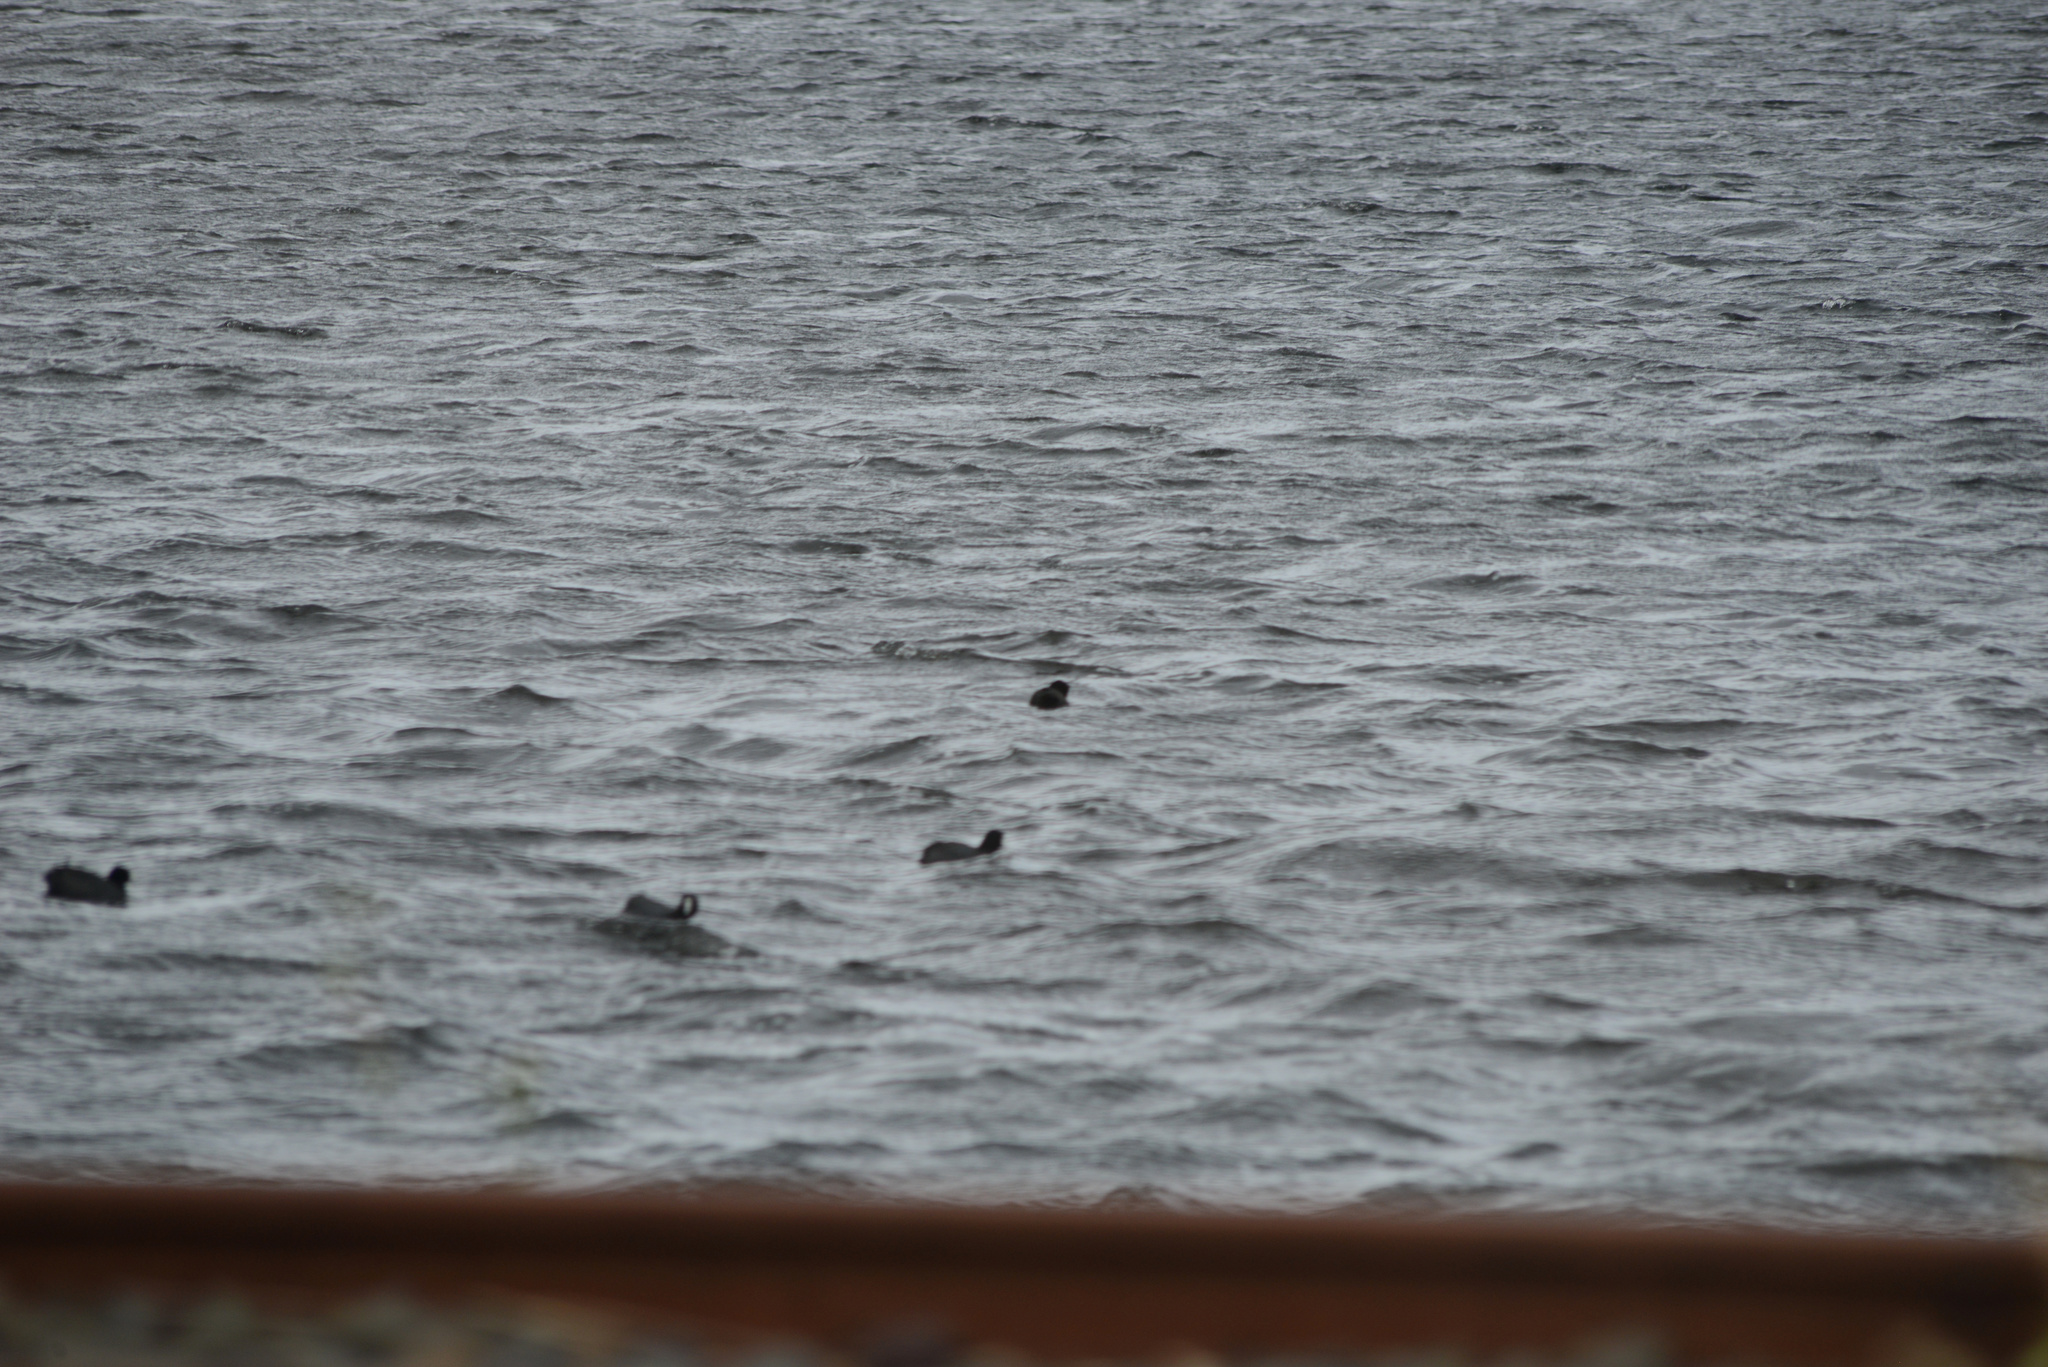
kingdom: Animalia
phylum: Chordata
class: Aves
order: Gruiformes
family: Rallidae
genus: Fulica
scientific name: Fulica atra
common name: Eurasian coot
